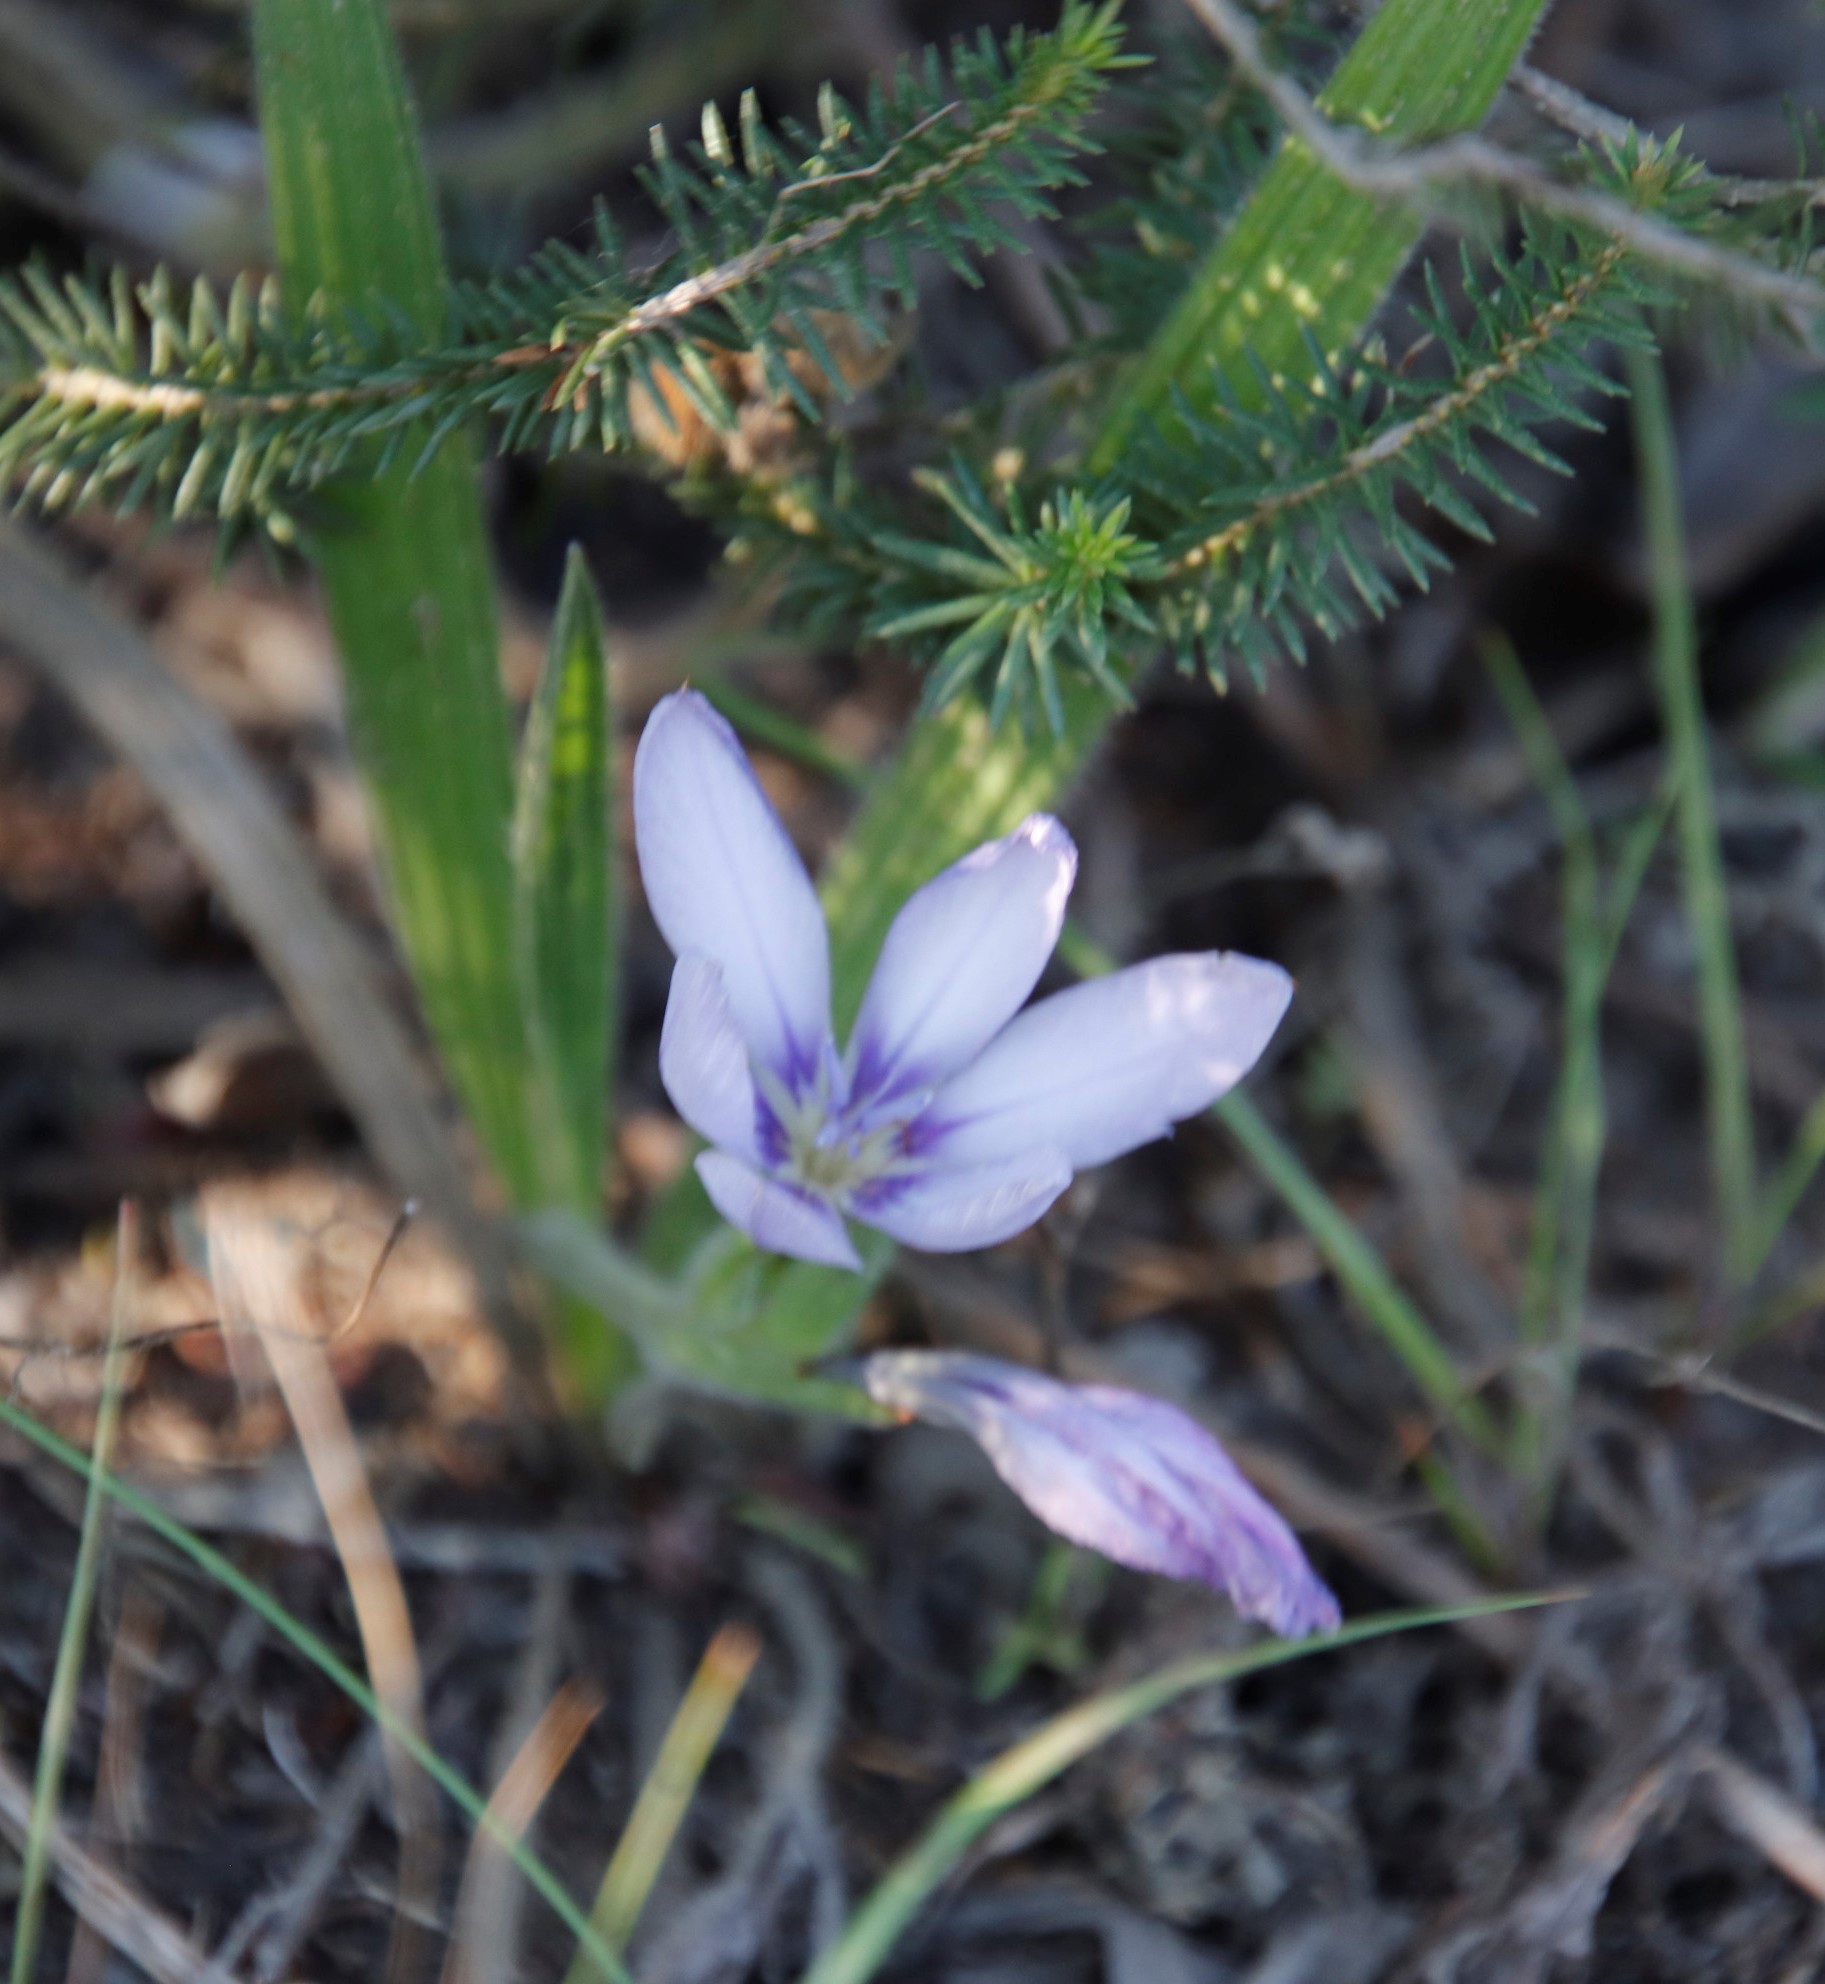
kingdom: Plantae
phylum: Tracheophyta
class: Liliopsida
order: Asparagales
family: Iridaceae
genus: Babiana
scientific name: Babiana villosula
